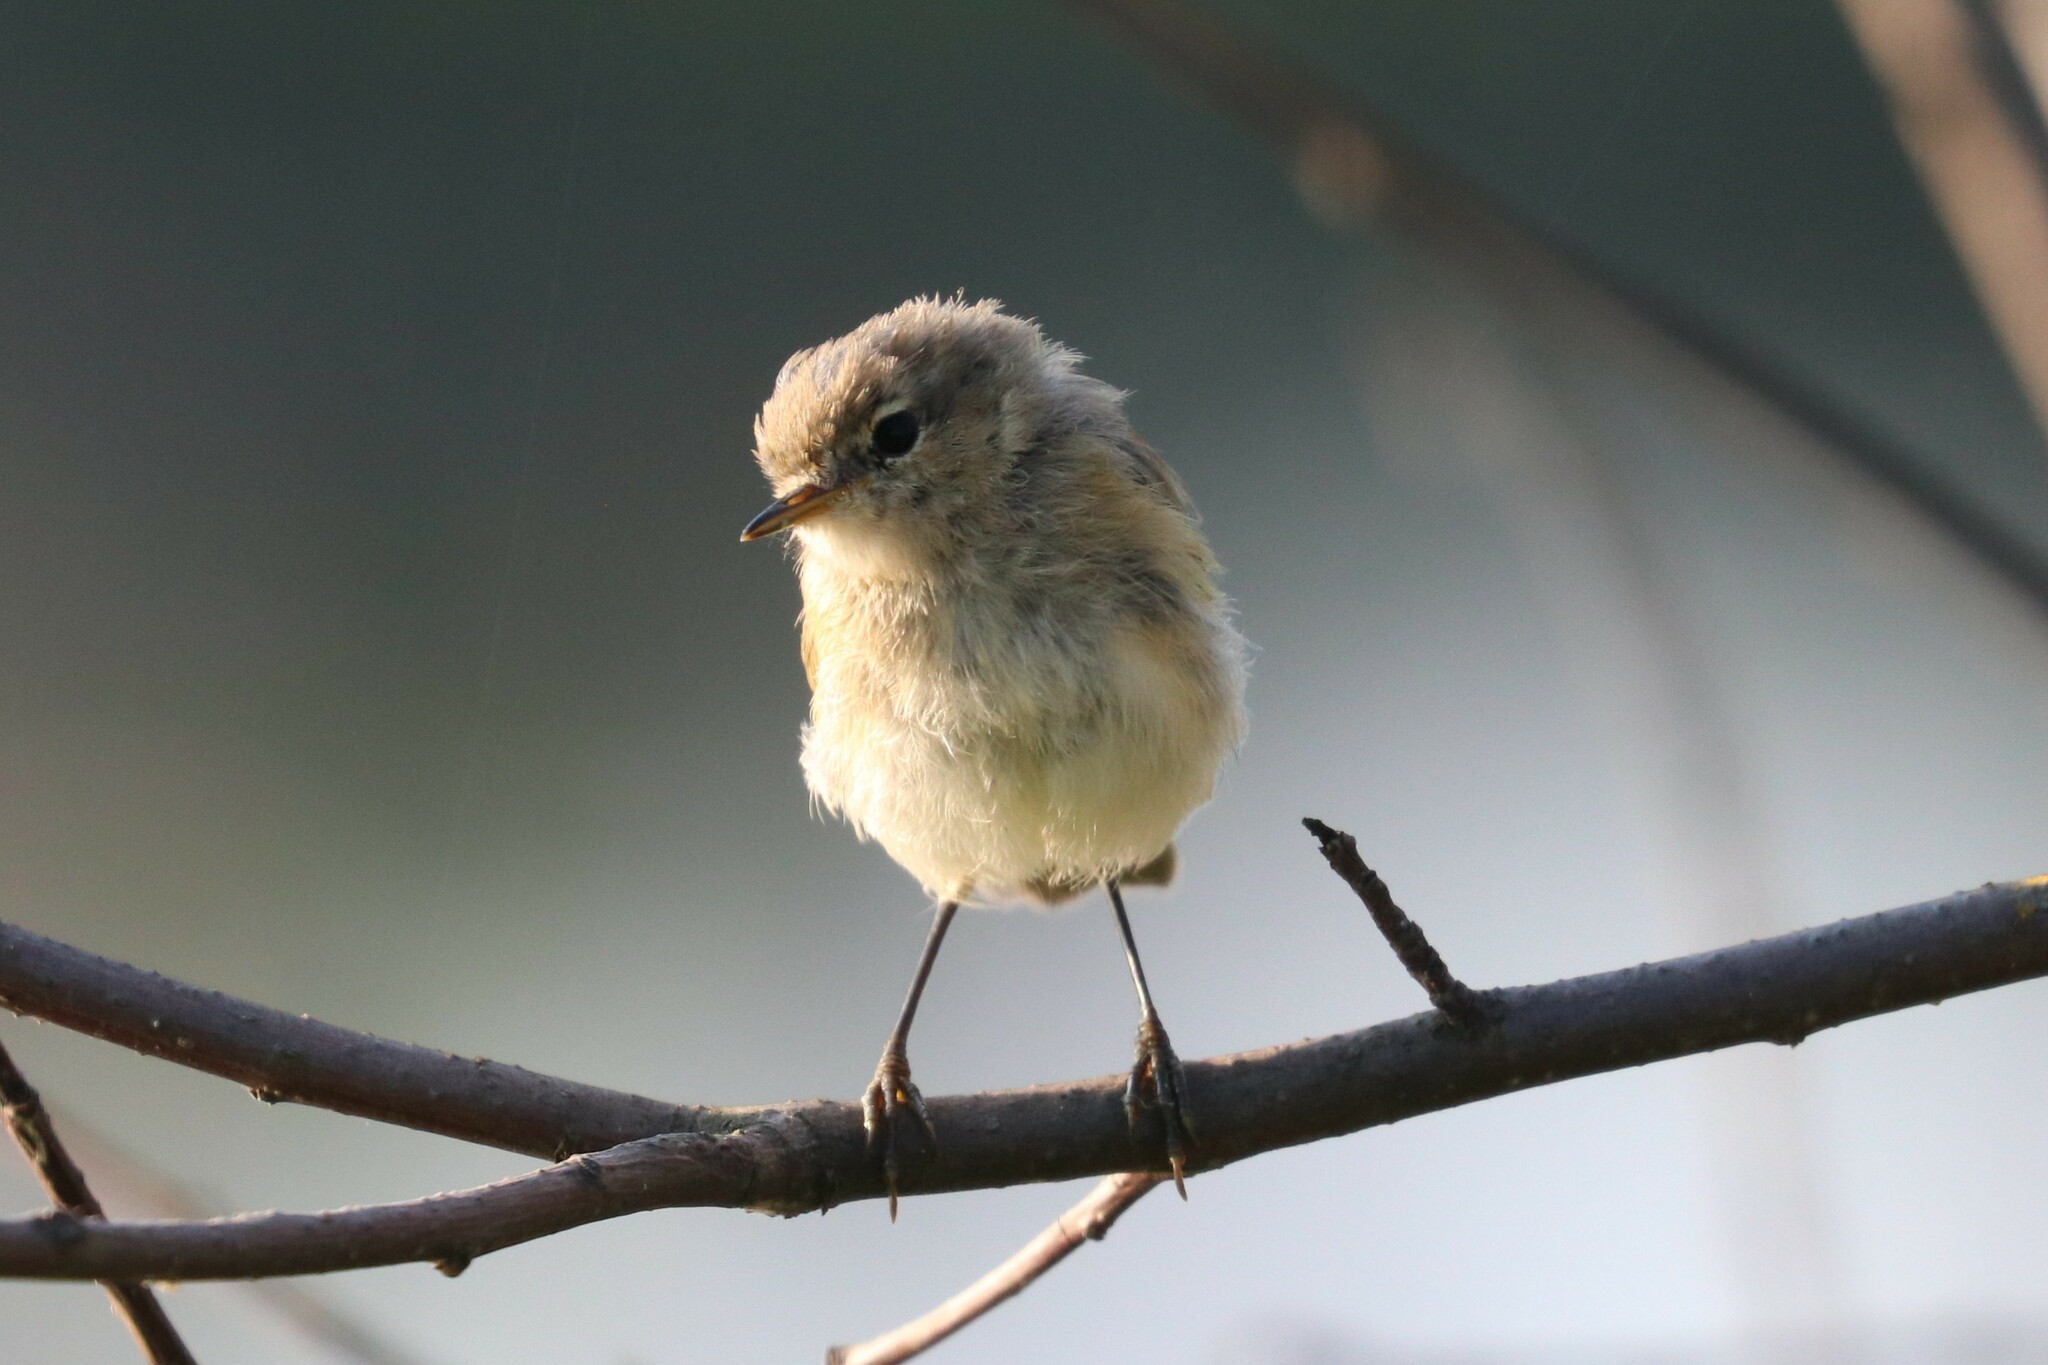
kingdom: Animalia
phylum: Chordata
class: Aves
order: Passeriformes
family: Phylloscopidae
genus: Phylloscopus
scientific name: Phylloscopus collybita
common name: Common chiffchaff
